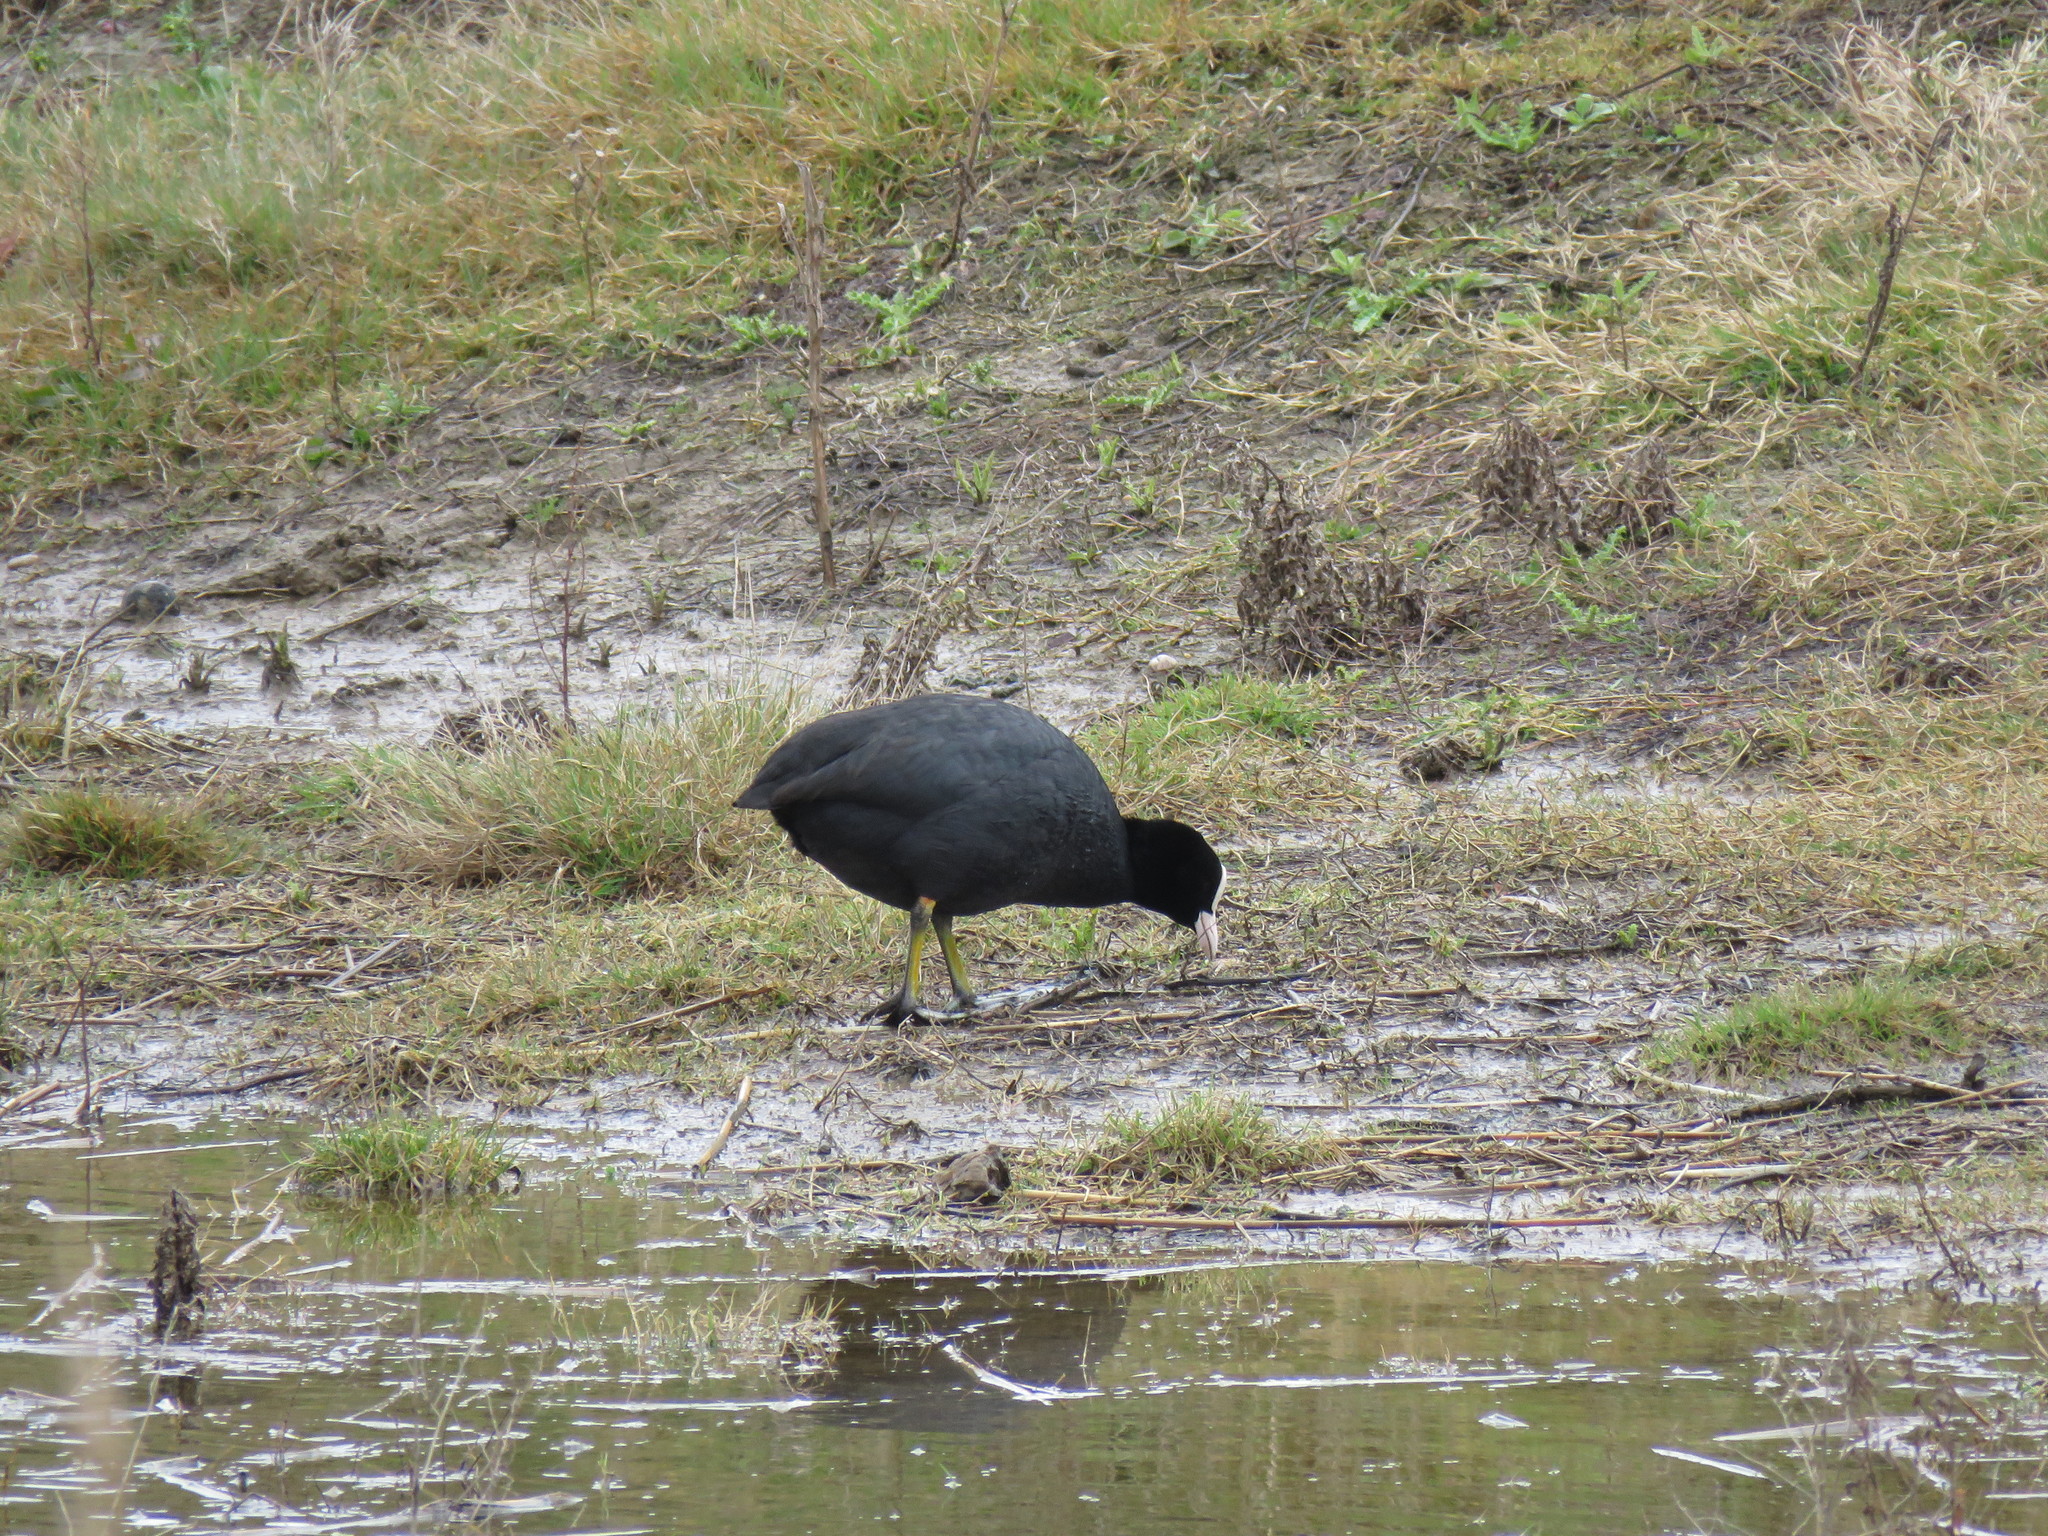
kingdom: Animalia
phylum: Chordata
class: Aves
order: Gruiformes
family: Rallidae
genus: Fulica
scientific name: Fulica atra
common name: Eurasian coot
